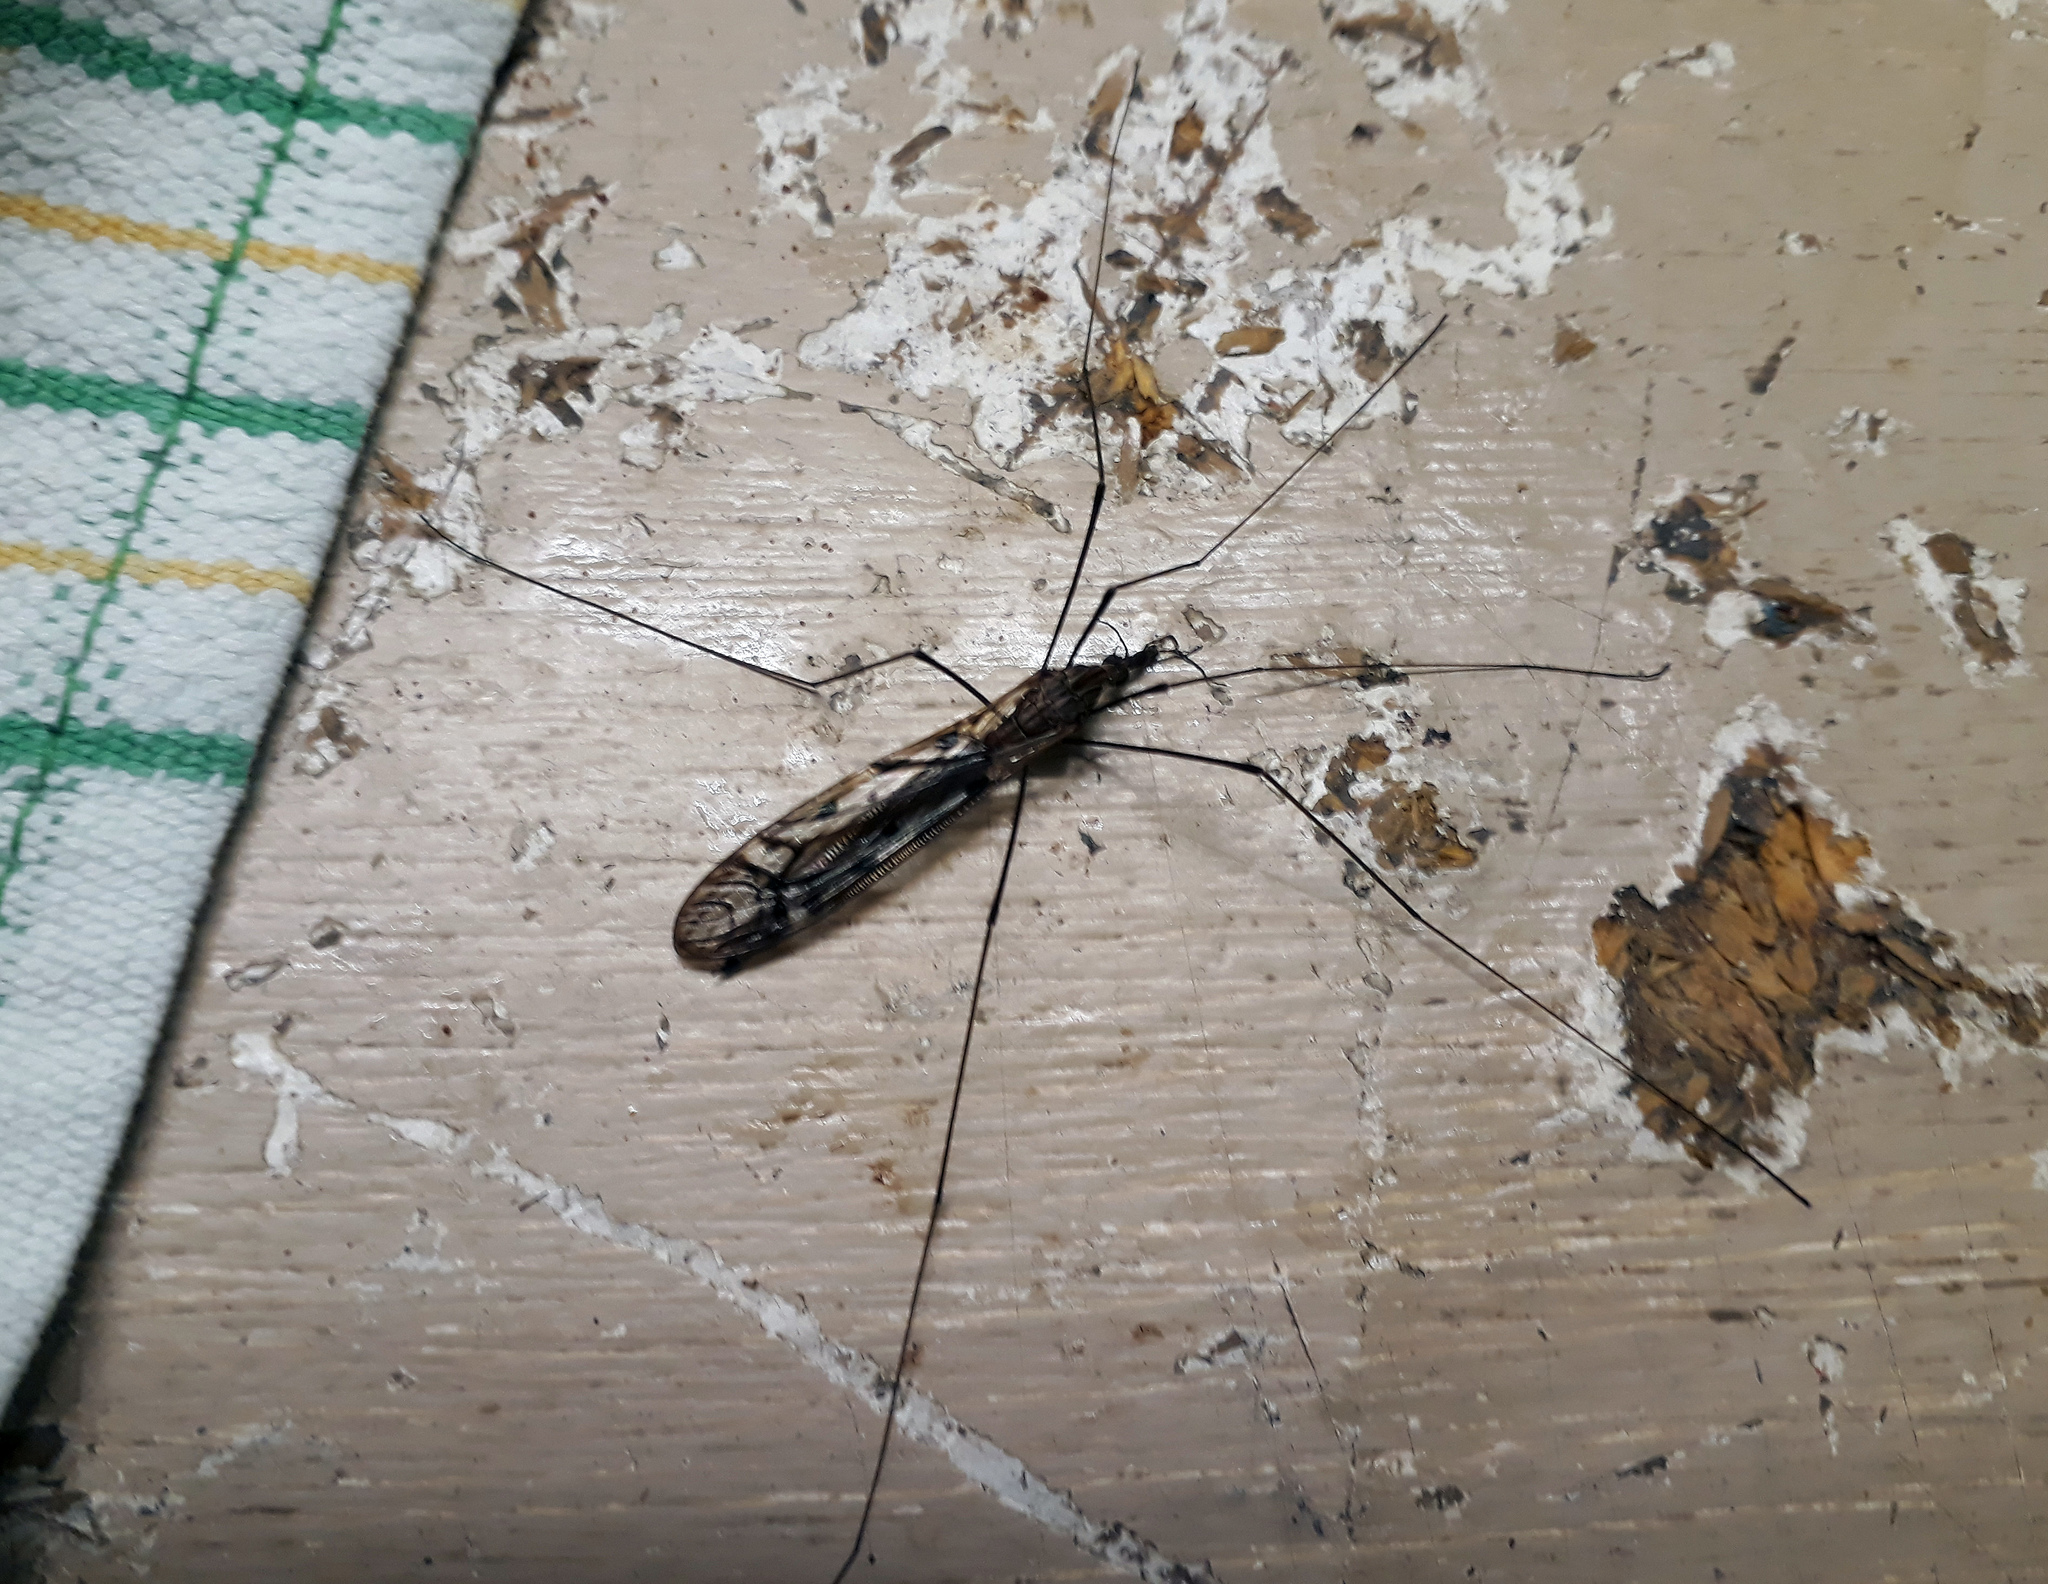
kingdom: Animalia
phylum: Arthropoda
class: Insecta
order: Diptera
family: Tipulidae
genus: Zelandotipula
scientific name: Zelandotipula novarae
